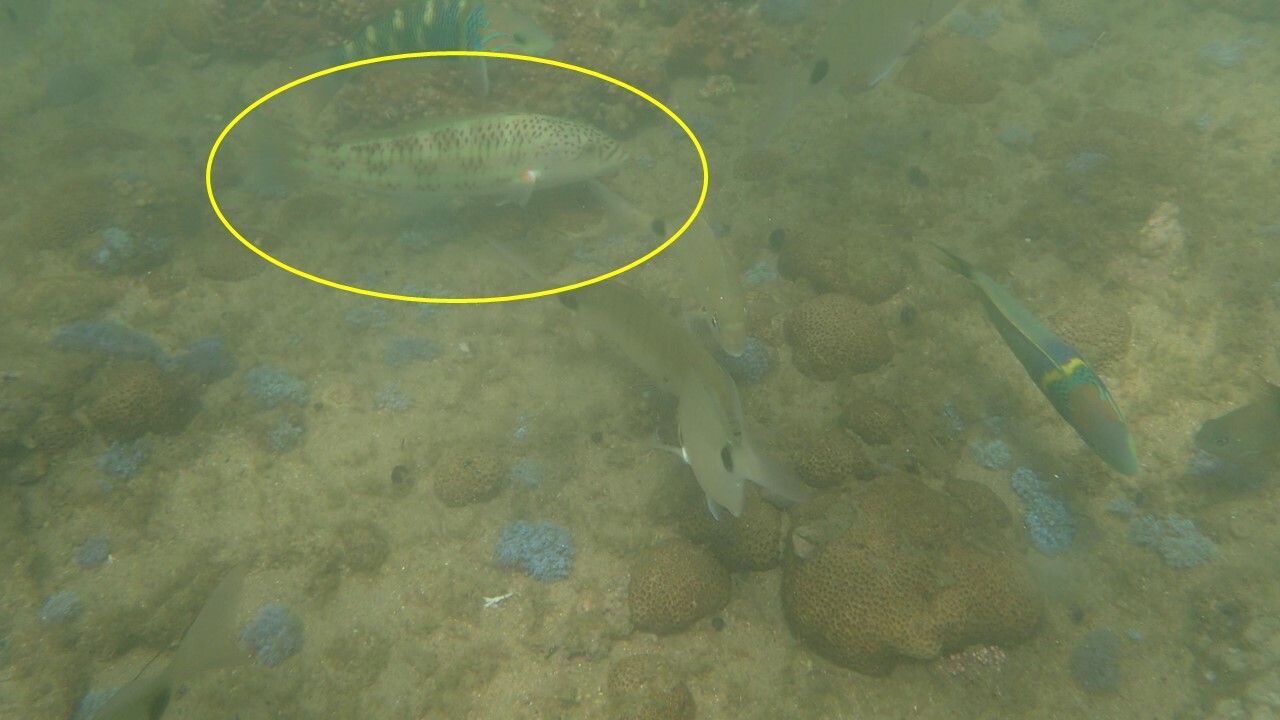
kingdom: Animalia
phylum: Chordata
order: Perciformes
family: Labridae
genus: Thalassoma
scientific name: Thalassoma purpureum
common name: Parrotfish
